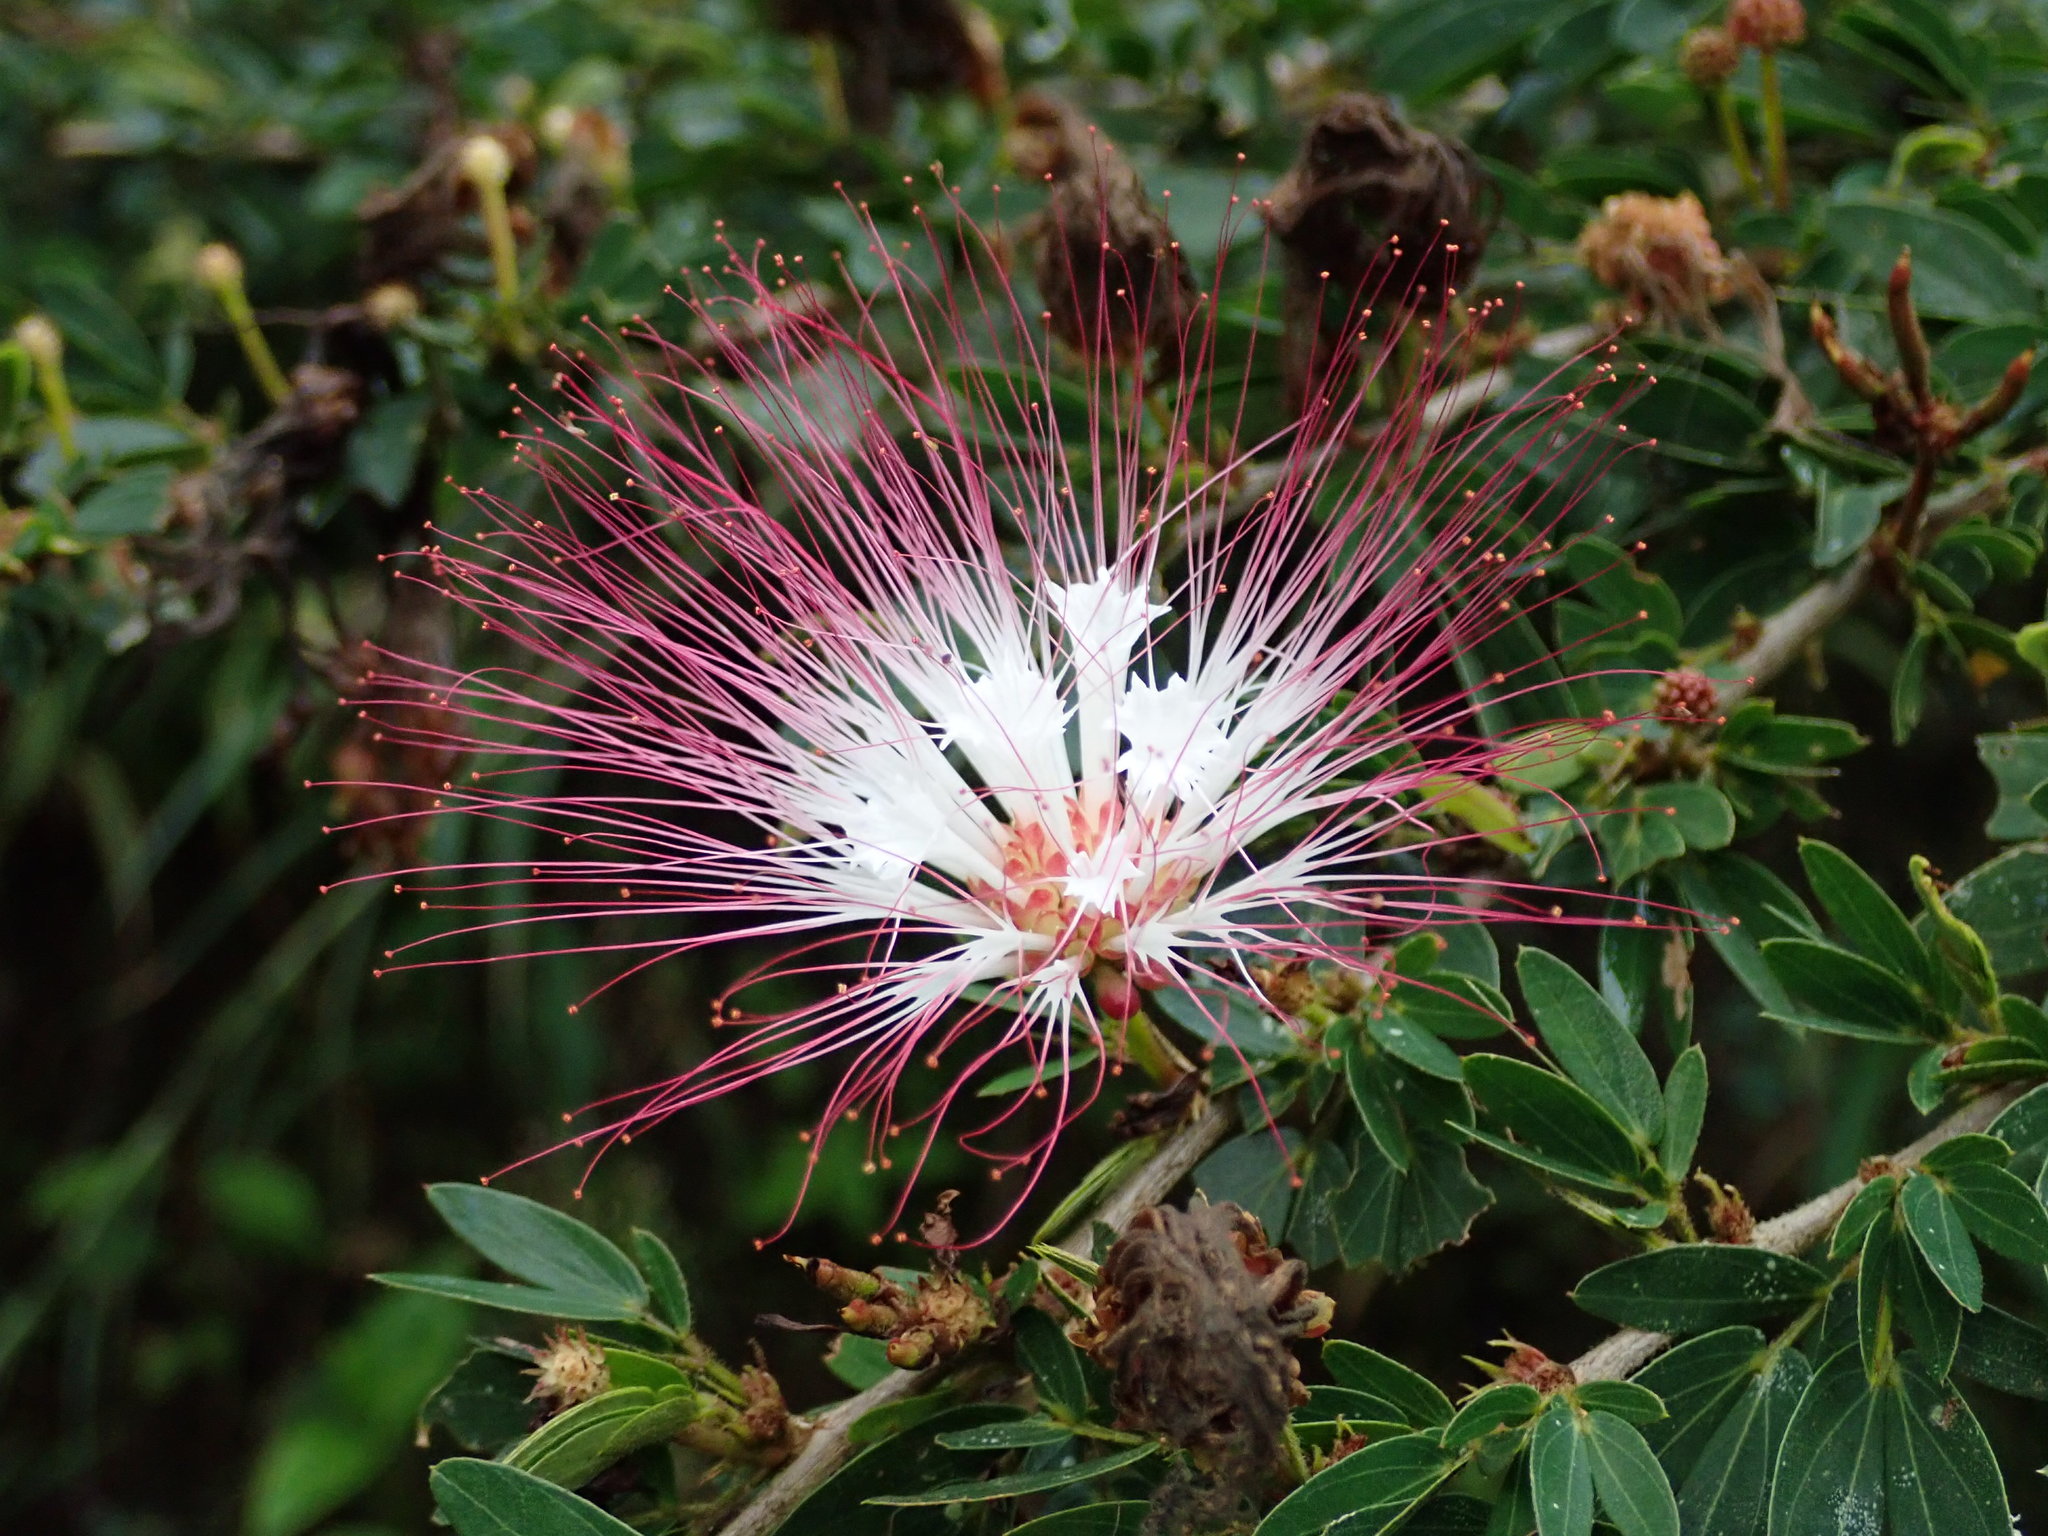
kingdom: Plantae
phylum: Tracheophyta
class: Magnoliopsida
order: Fabales
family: Fabaceae
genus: Calliandra
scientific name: Calliandra angustifolia
